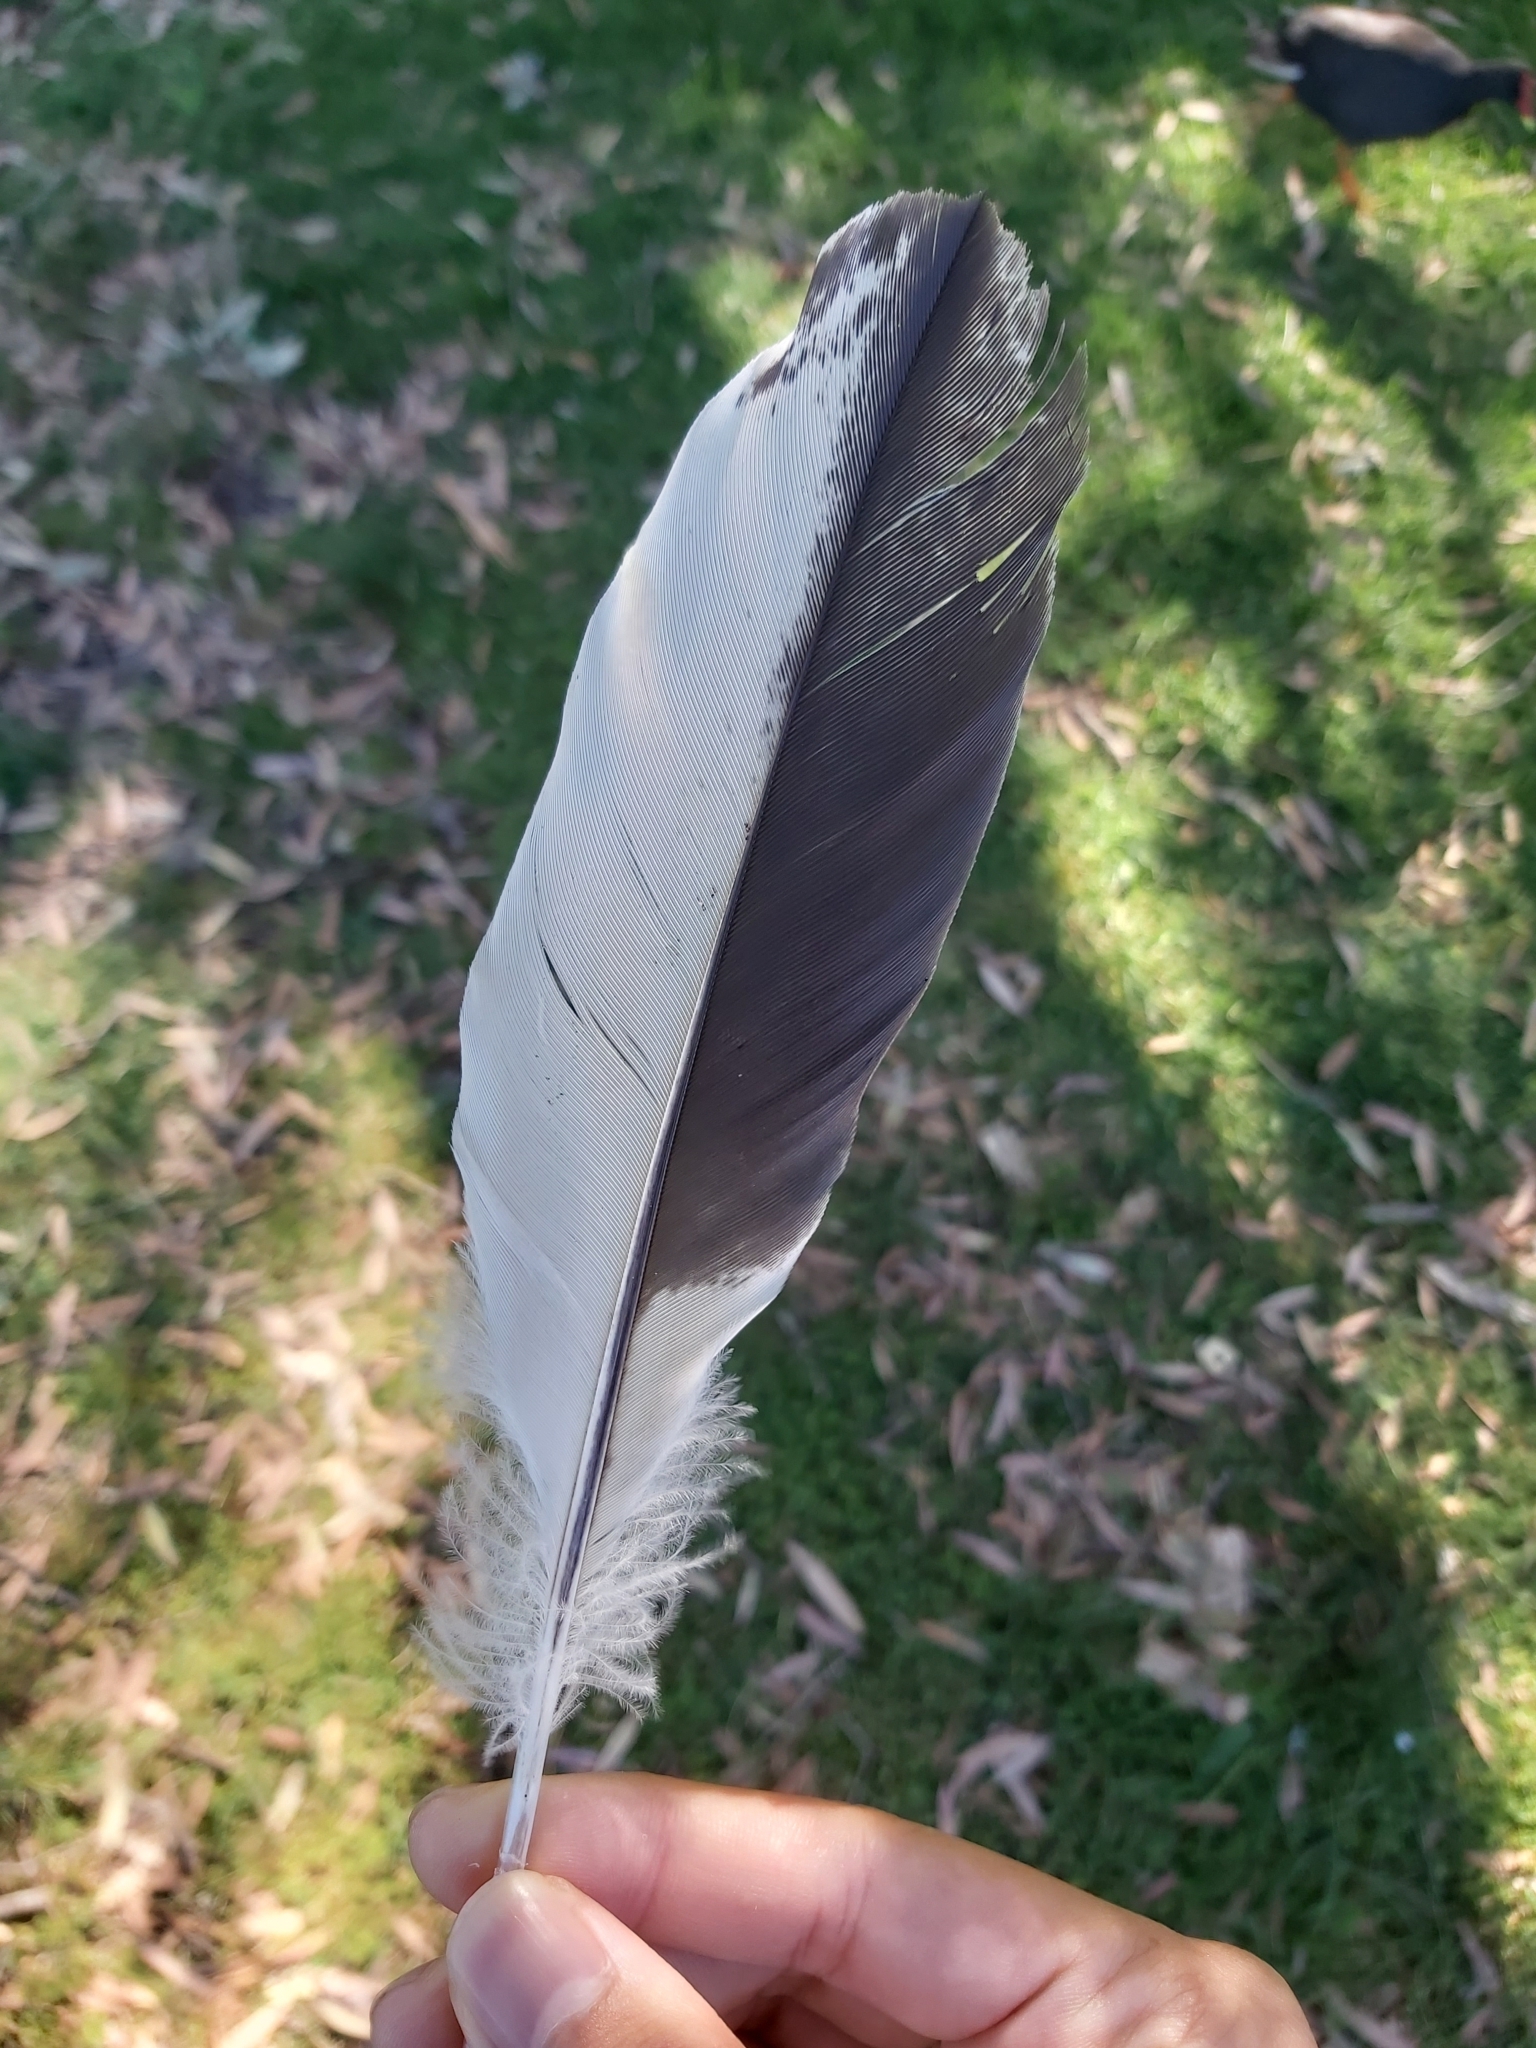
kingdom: Animalia
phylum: Chordata
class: Aves
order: Pelecaniformes
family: Threskiornithidae
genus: Threskiornis
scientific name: Threskiornis molucca
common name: Australian white ibis
